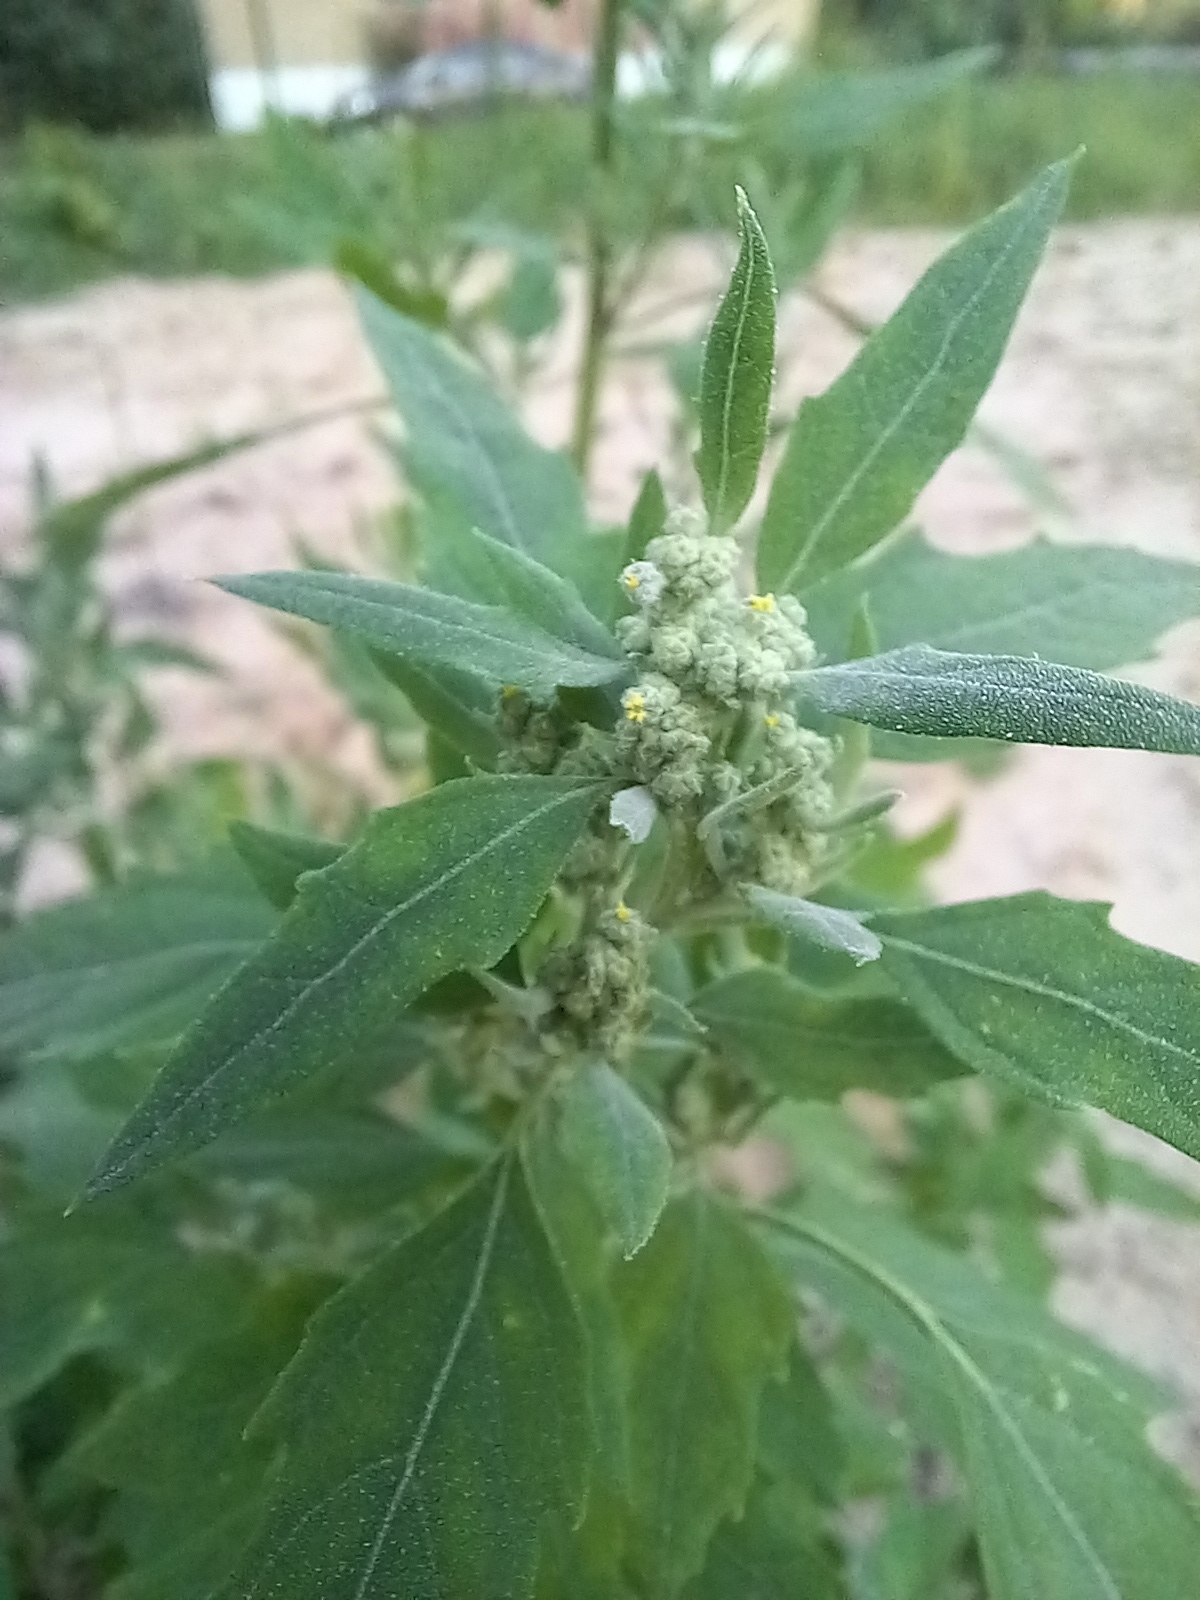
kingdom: Plantae
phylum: Tracheophyta
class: Magnoliopsida
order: Caryophyllales
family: Amaranthaceae
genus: Chenopodium
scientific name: Chenopodium album
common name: Fat-hen
